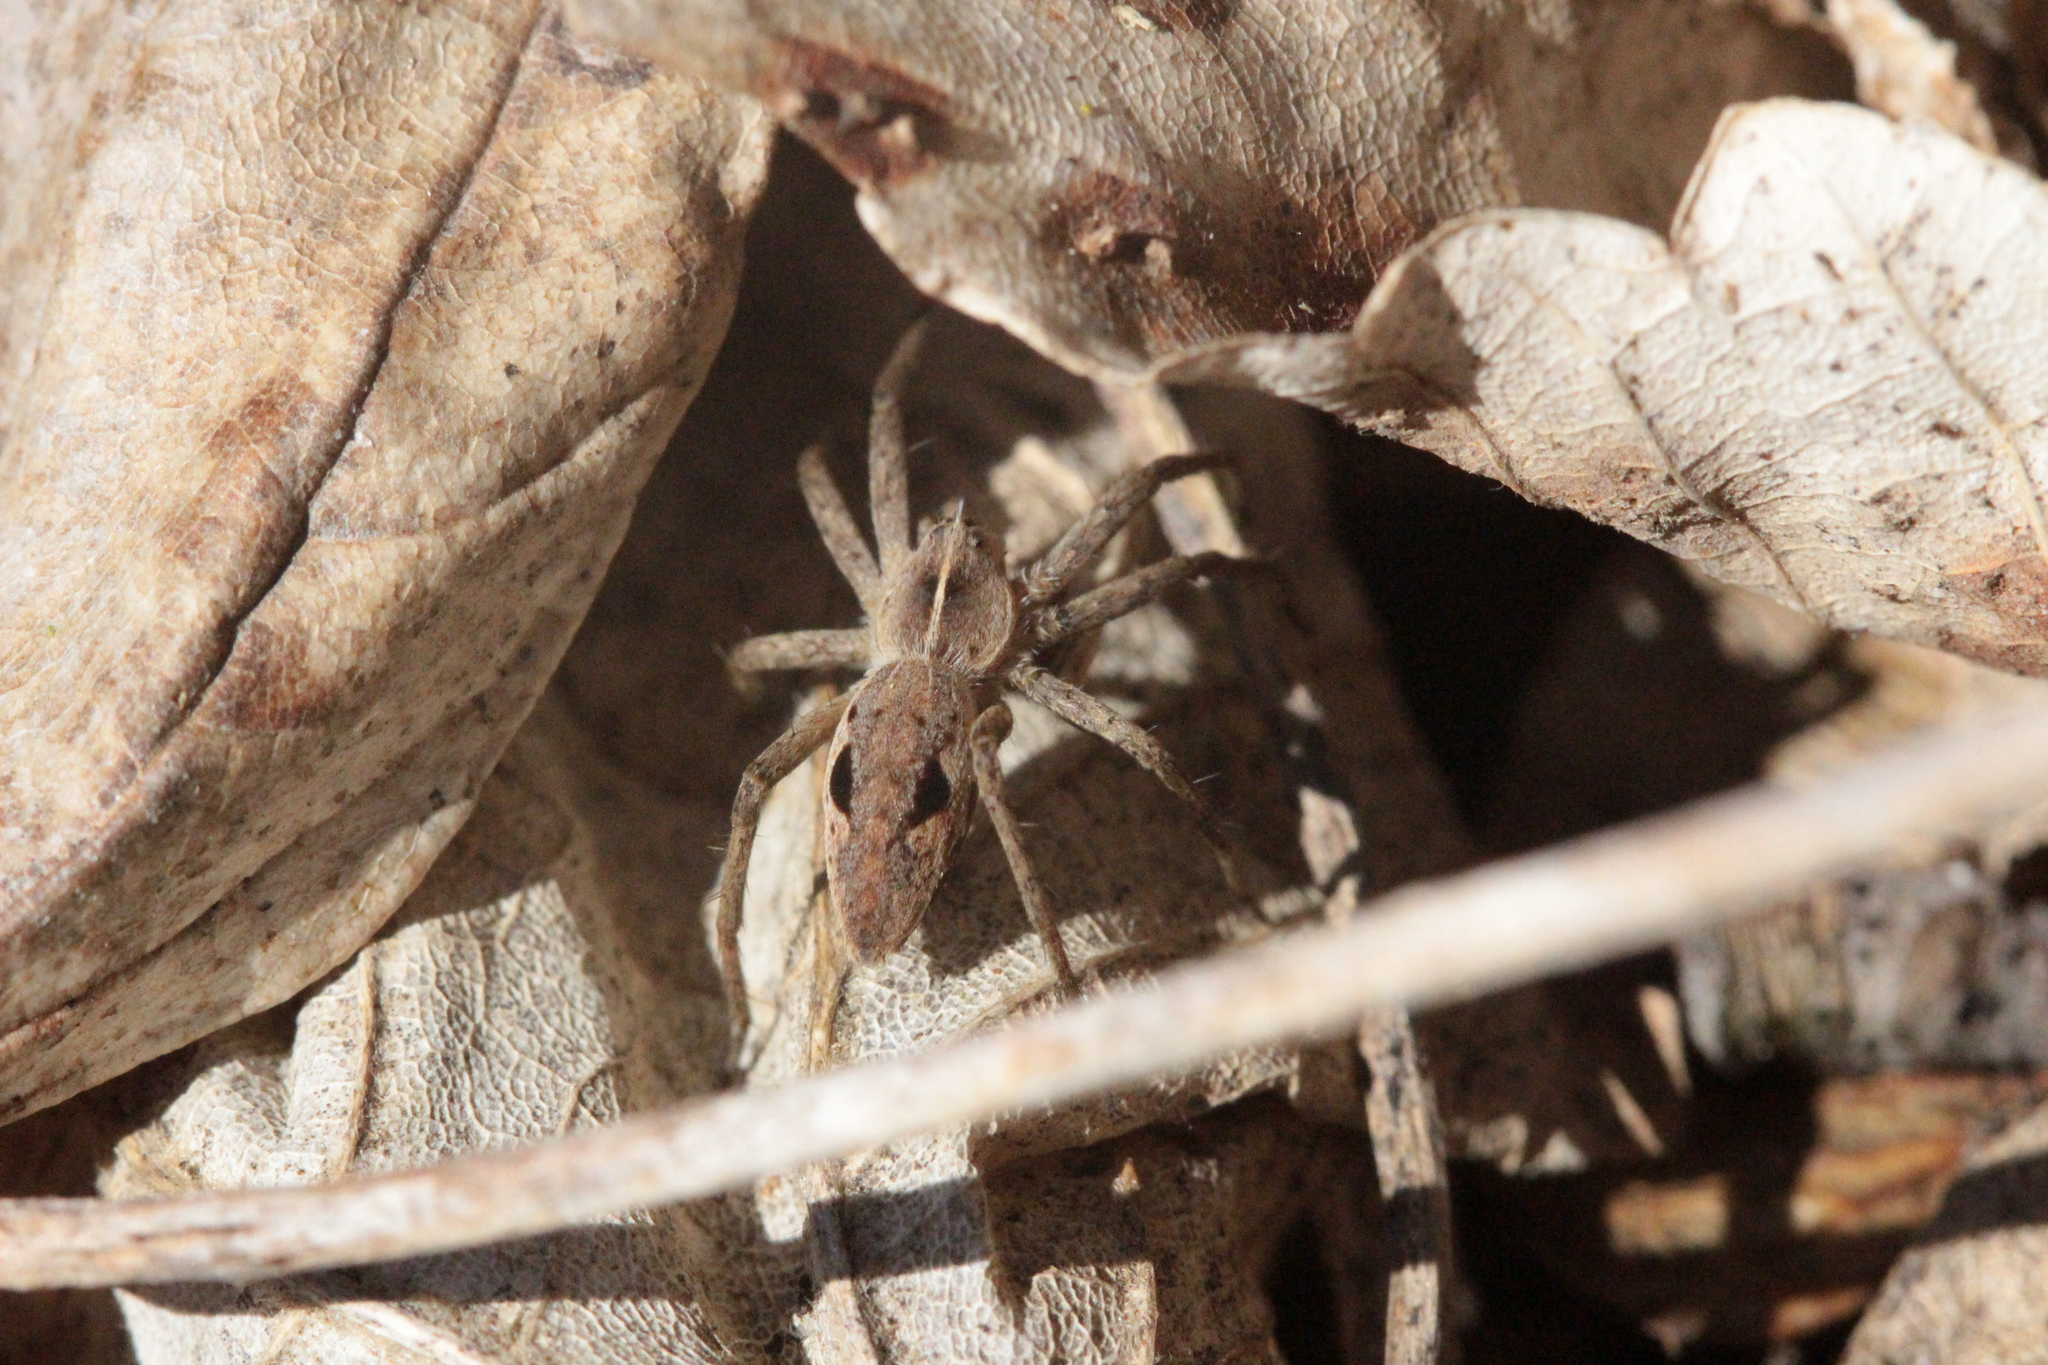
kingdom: Animalia
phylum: Arthropoda
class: Arachnida
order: Araneae
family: Pisauridae
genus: Pisaura
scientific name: Pisaura mirabilis
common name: Tent spider
